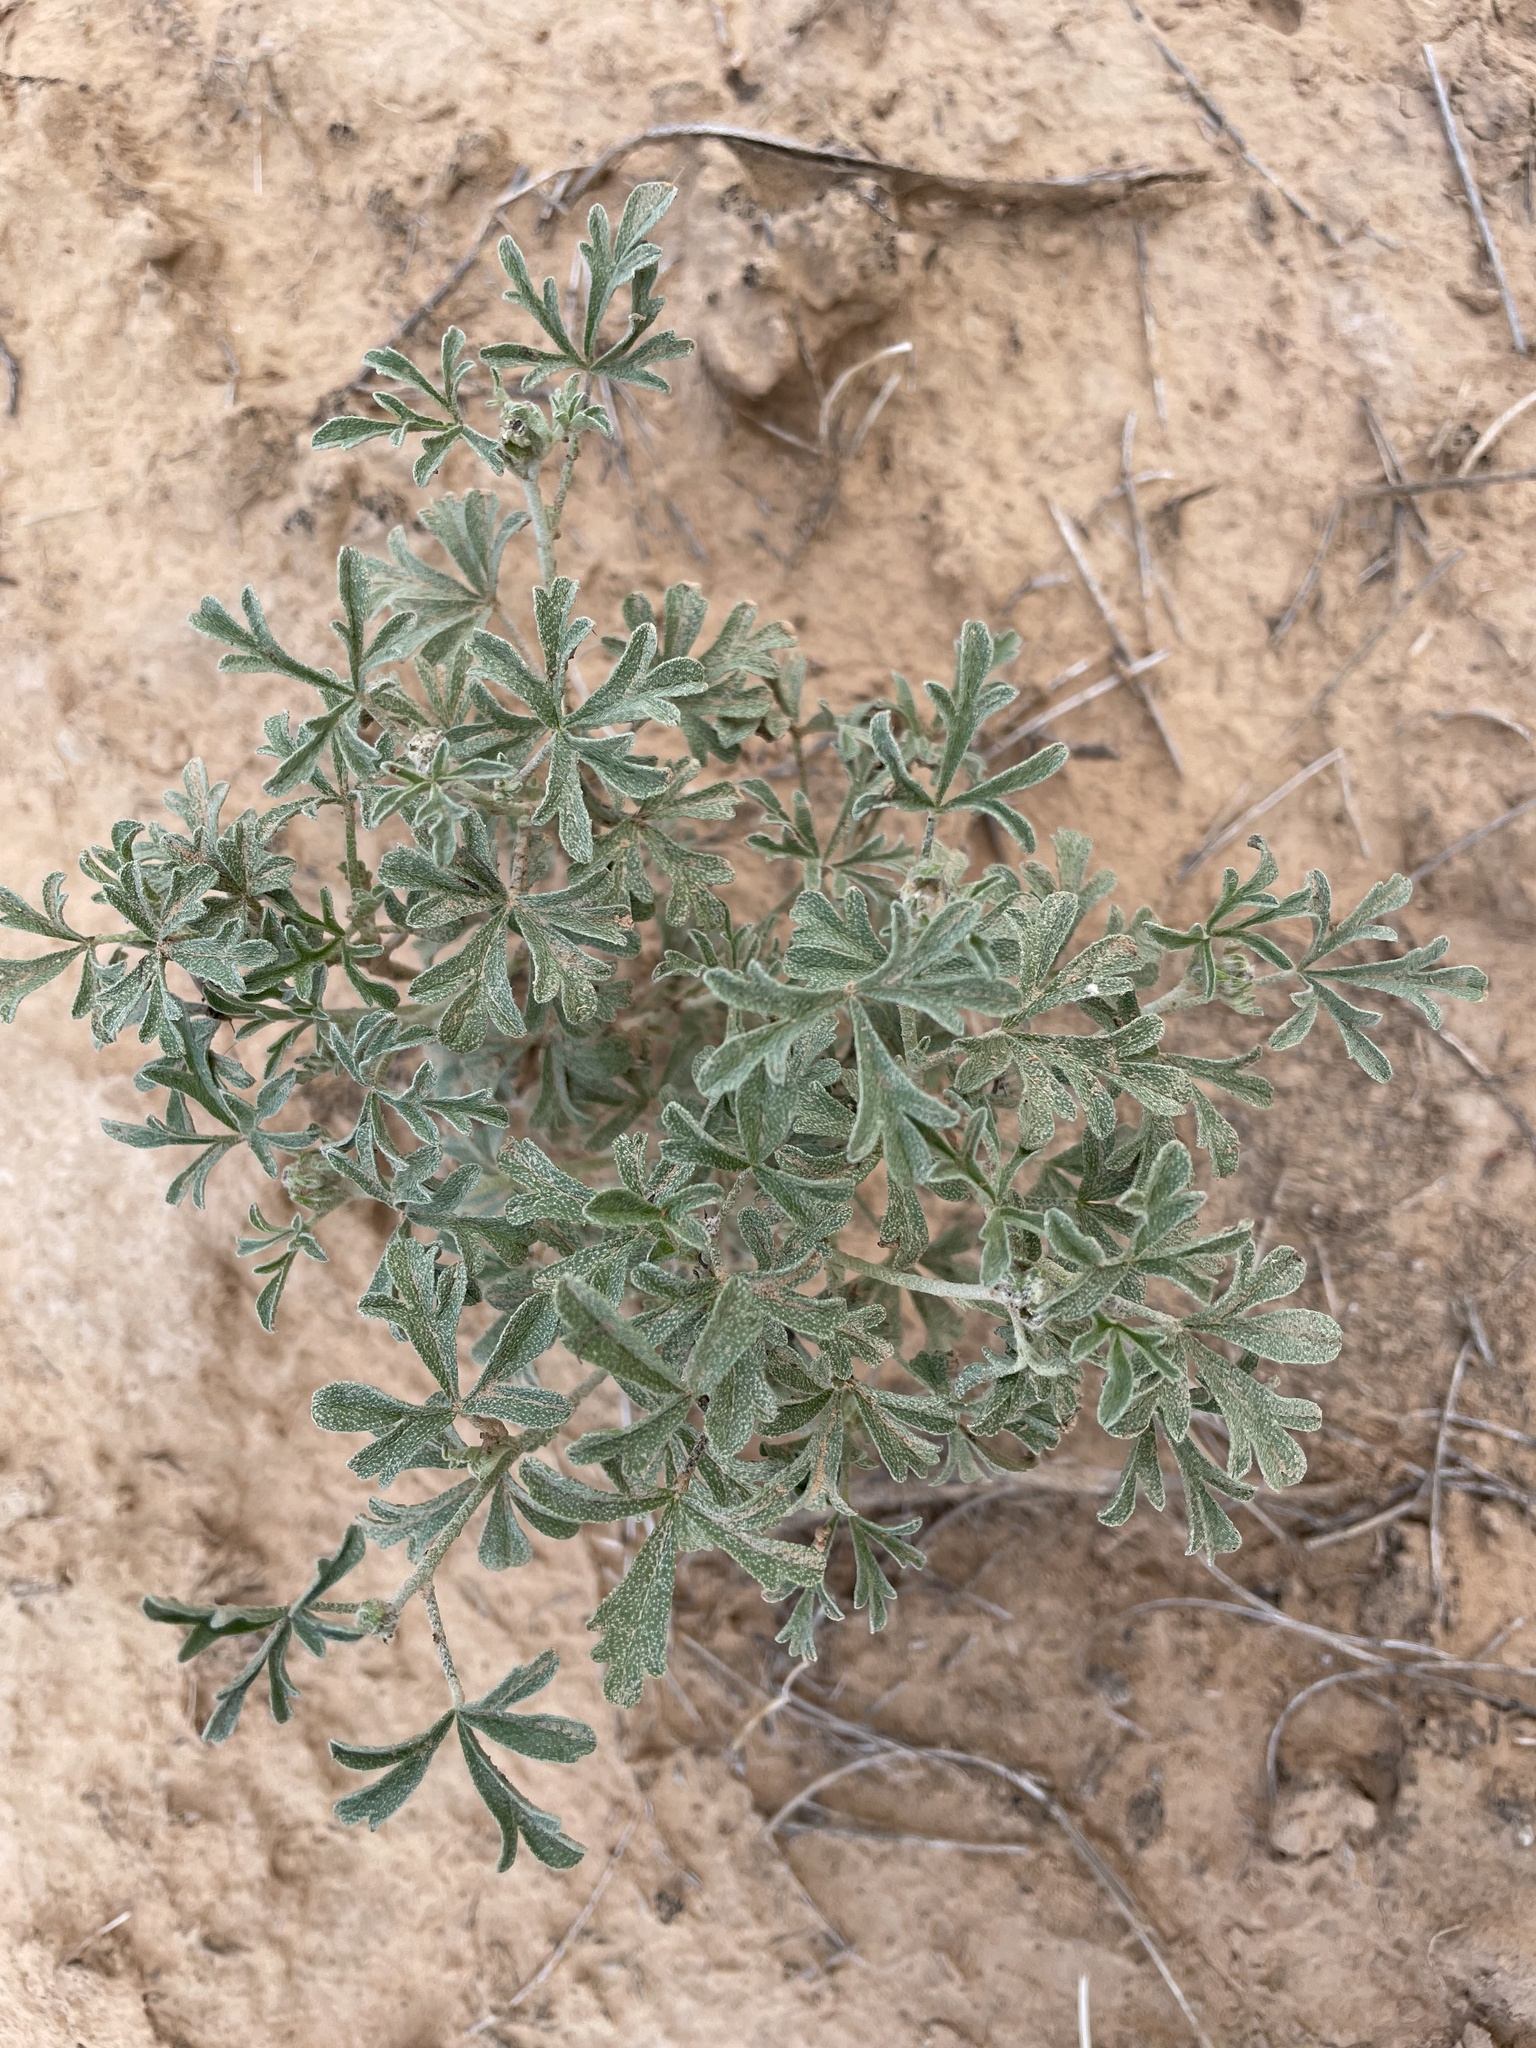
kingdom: Plantae
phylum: Tracheophyta
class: Magnoliopsida
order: Malvales
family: Malvaceae
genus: Sphaeralcea
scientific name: Sphaeralcea coccinea
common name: Moss-rose
